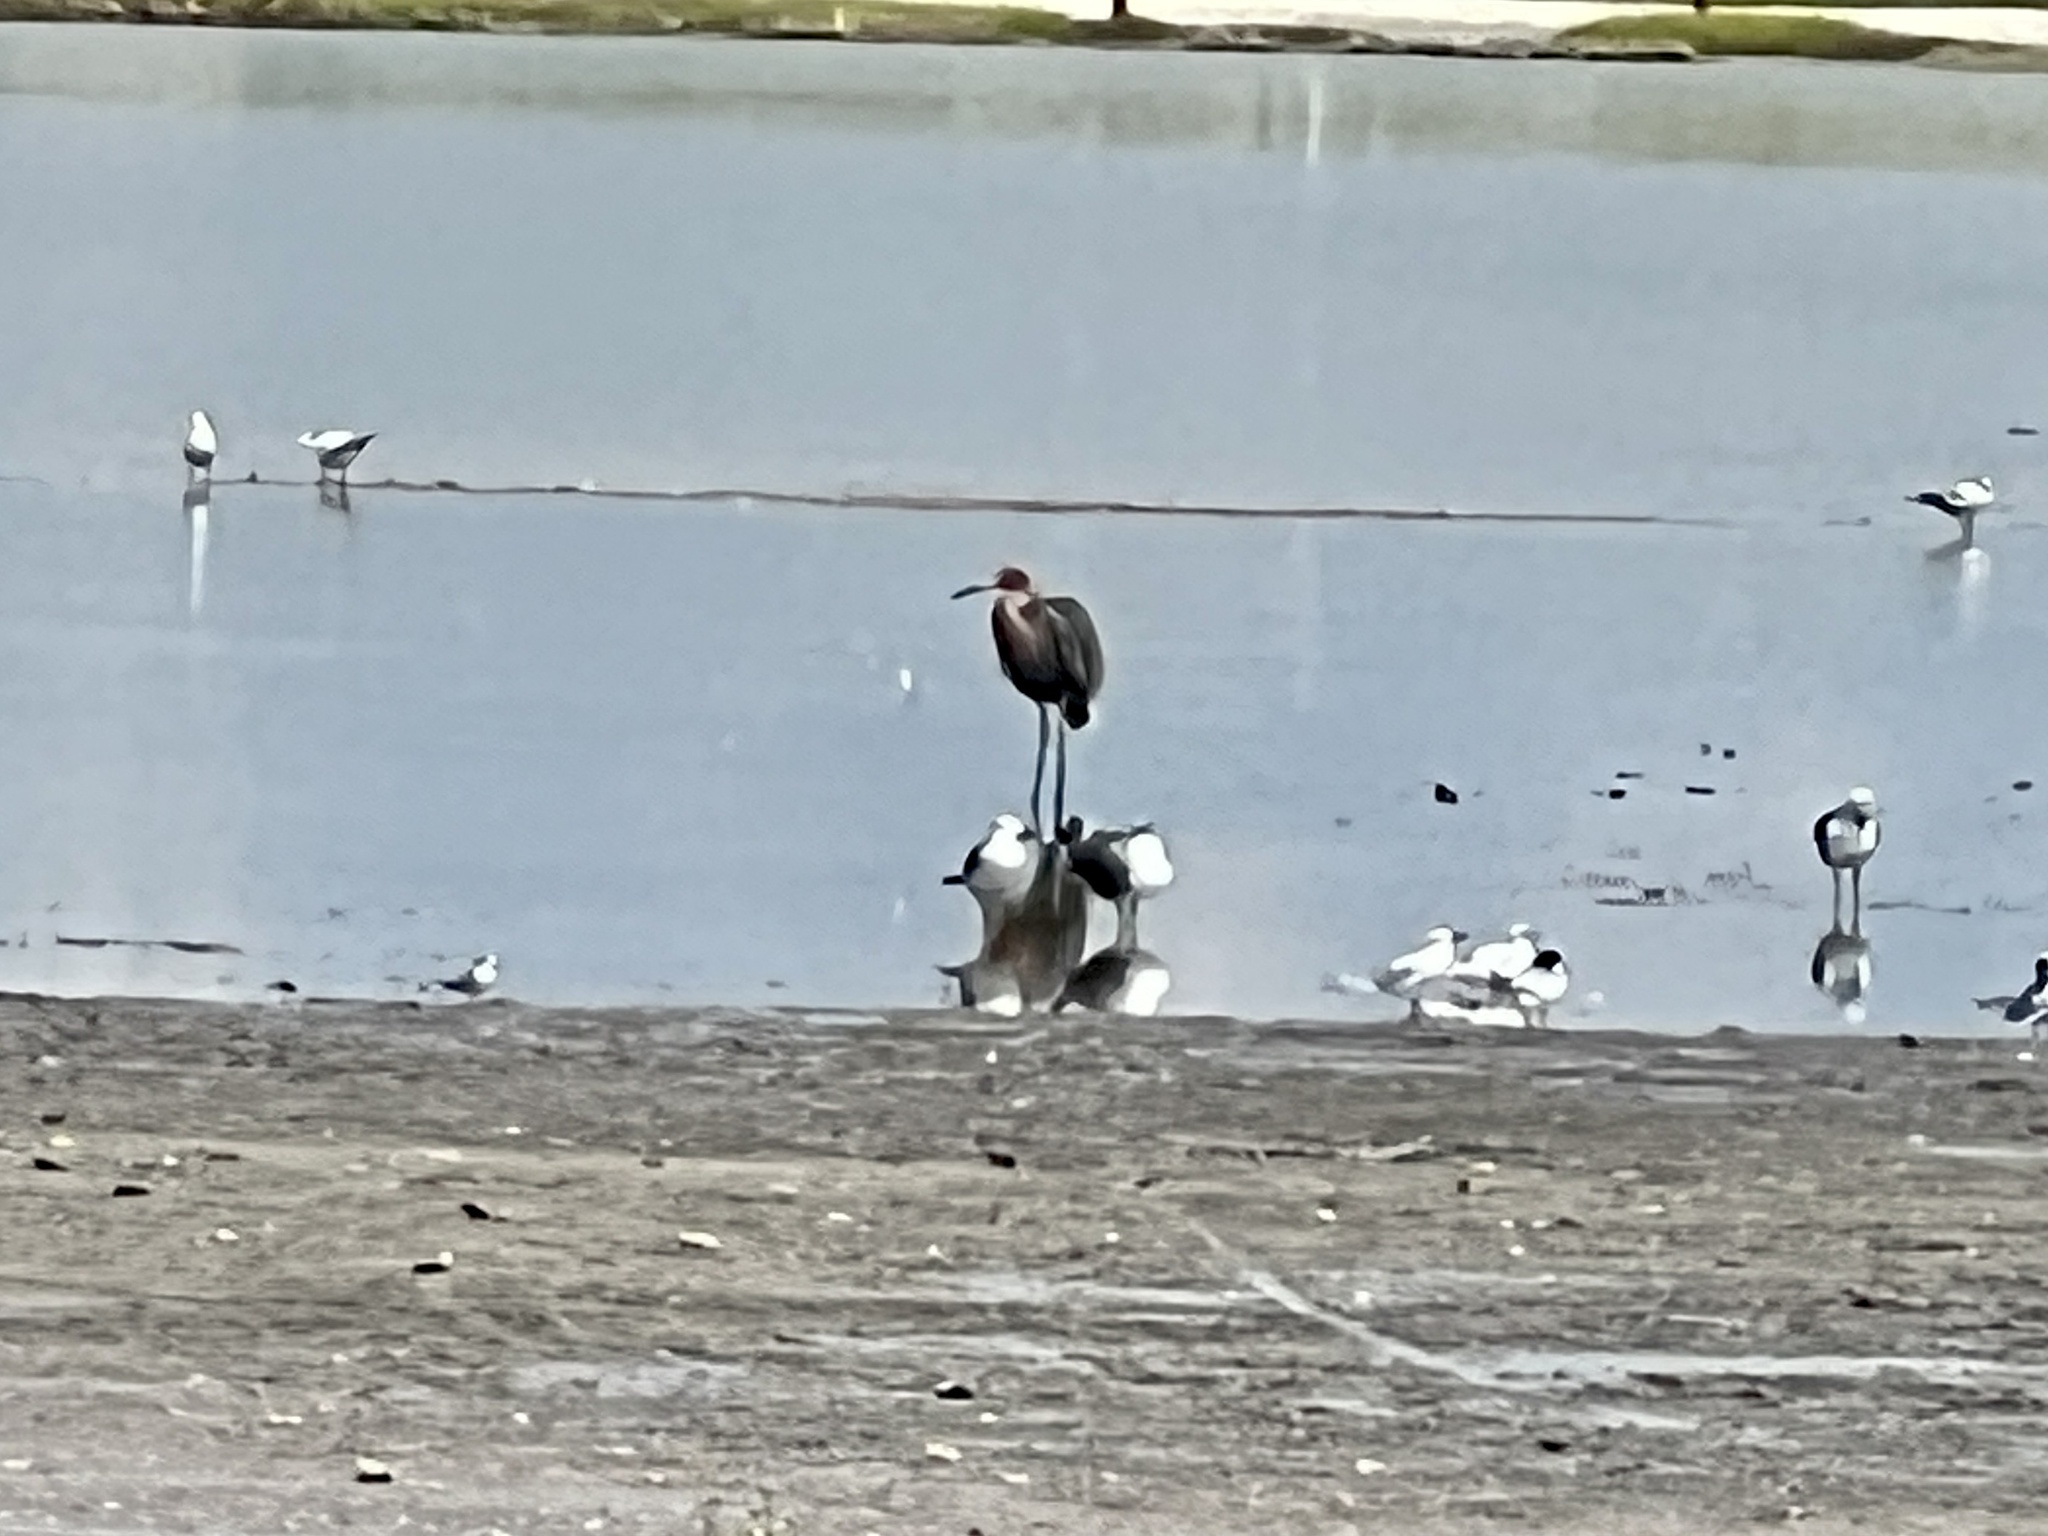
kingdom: Animalia
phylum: Chordata
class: Aves
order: Pelecaniformes
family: Ardeidae
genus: Egretta
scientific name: Egretta rufescens
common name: Reddish egret
